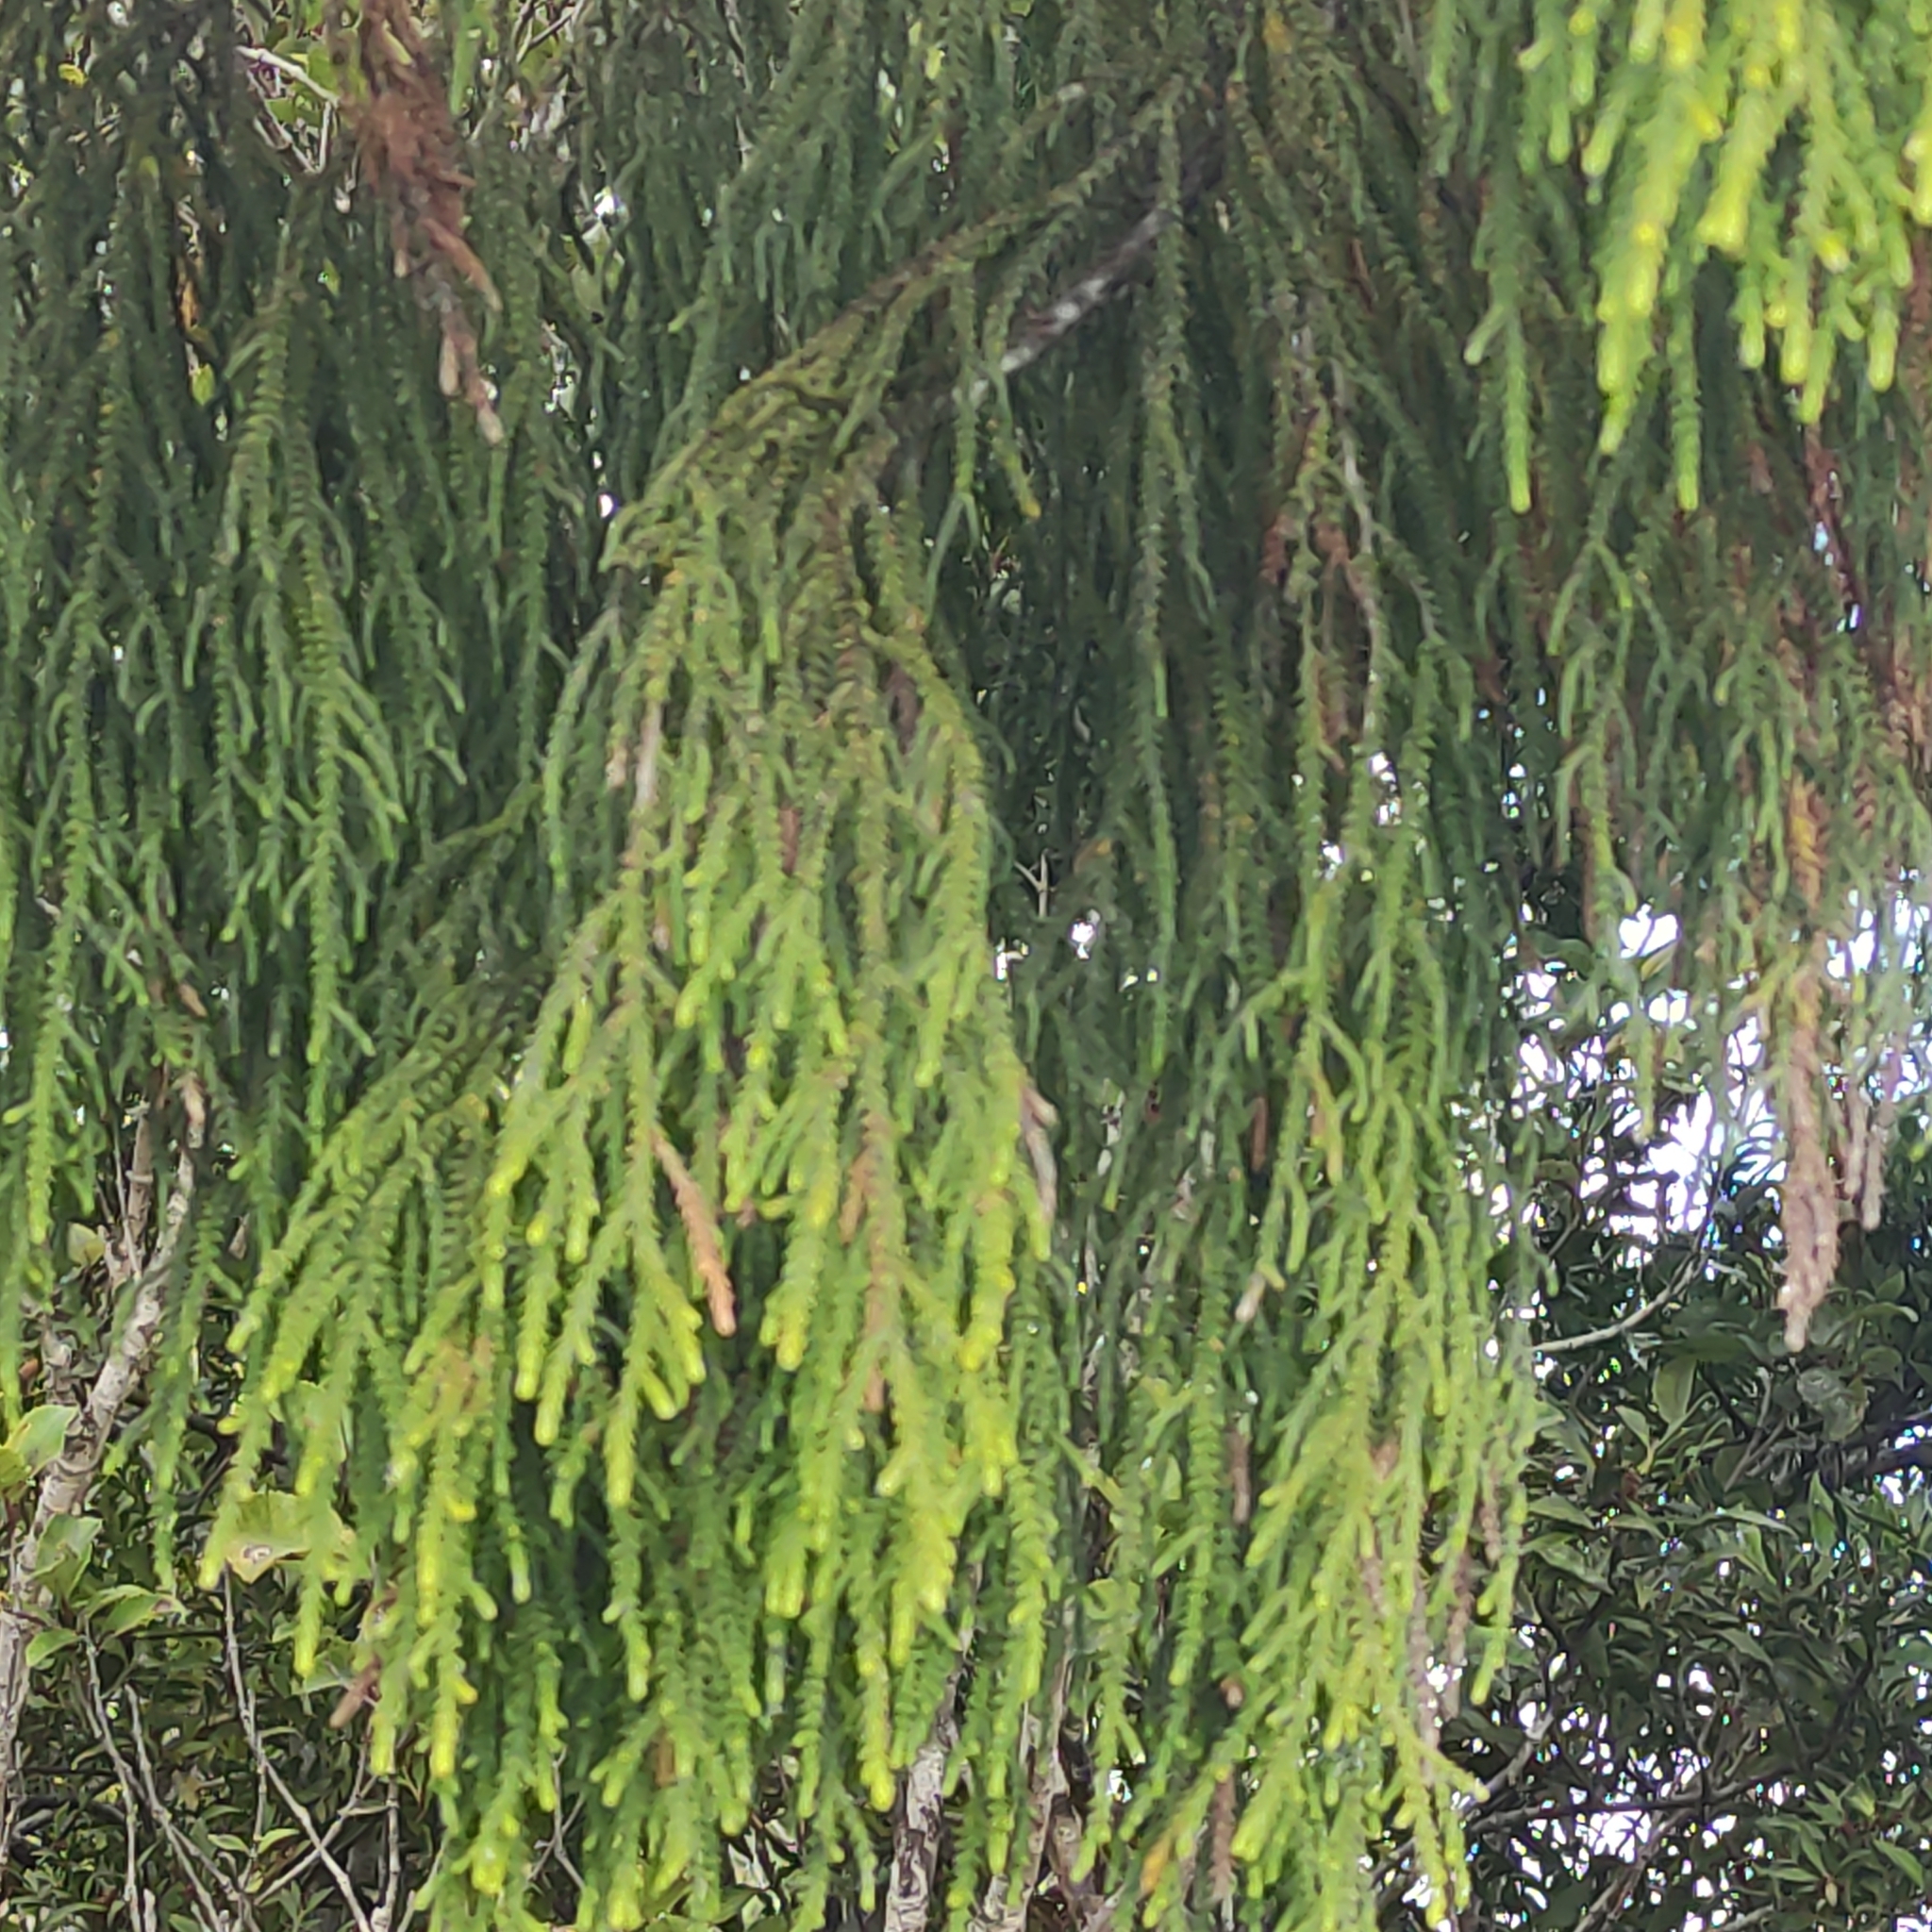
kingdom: Plantae
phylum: Tracheophyta
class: Pinopsida
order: Pinales
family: Podocarpaceae
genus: Dacrydium
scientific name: Dacrydium cupressinum
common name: Red pine
